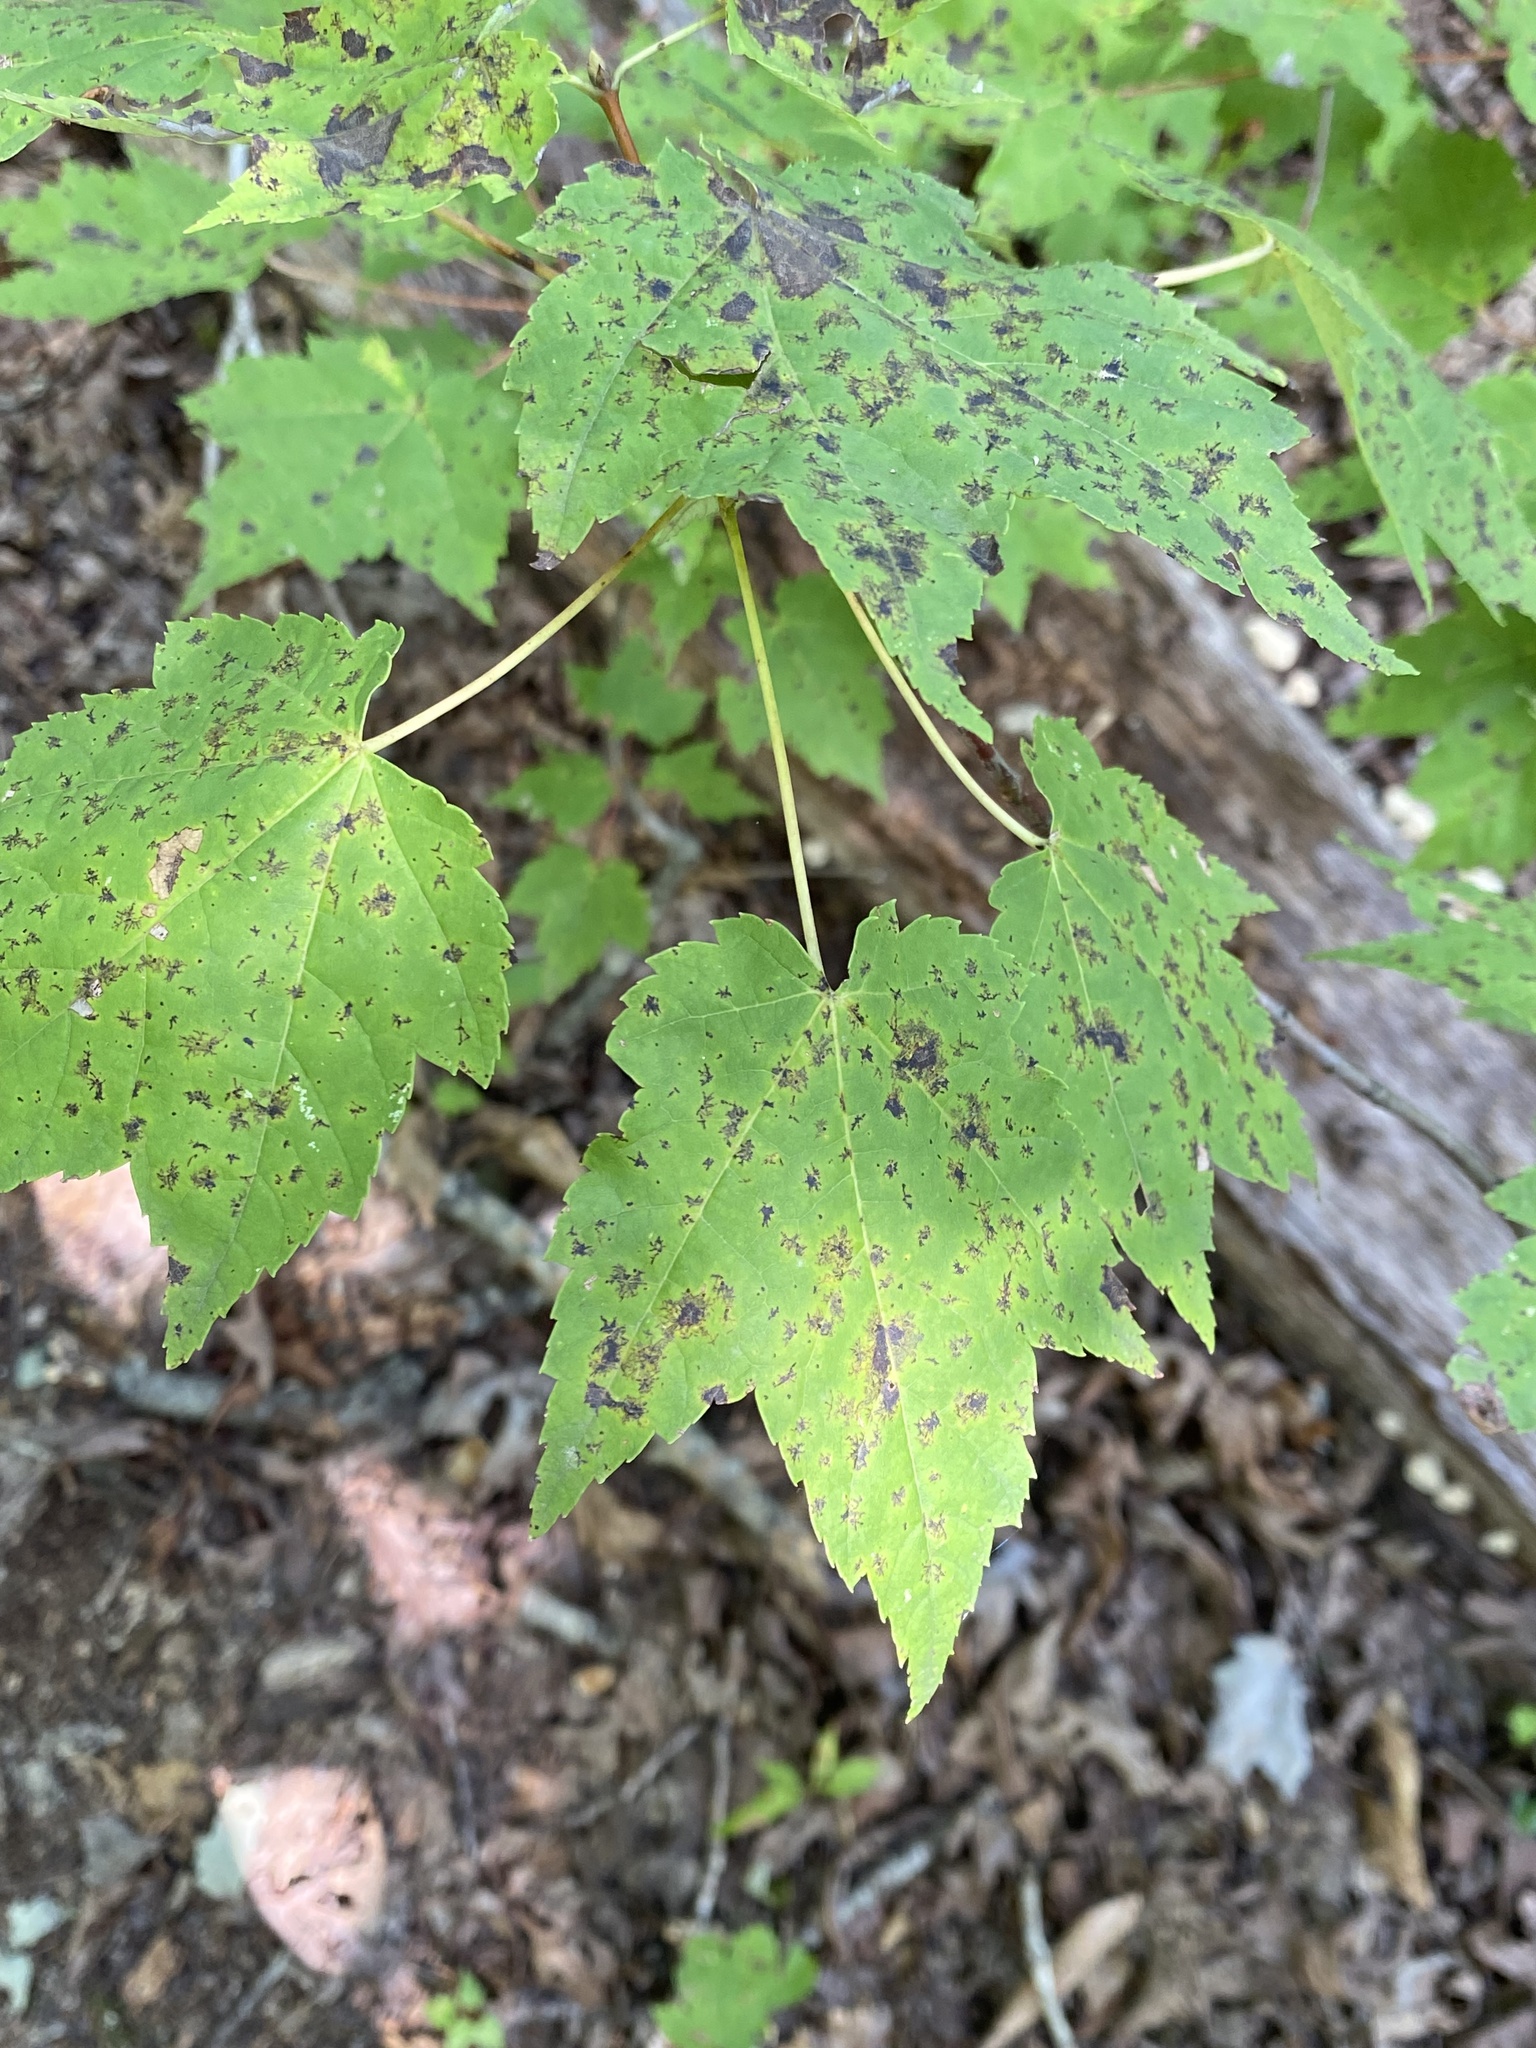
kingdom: Plantae
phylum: Tracheophyta
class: Magnoliopsida
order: Sapindales
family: Sapindaceae
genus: Acer
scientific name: Acer rubrum
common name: Red maple
